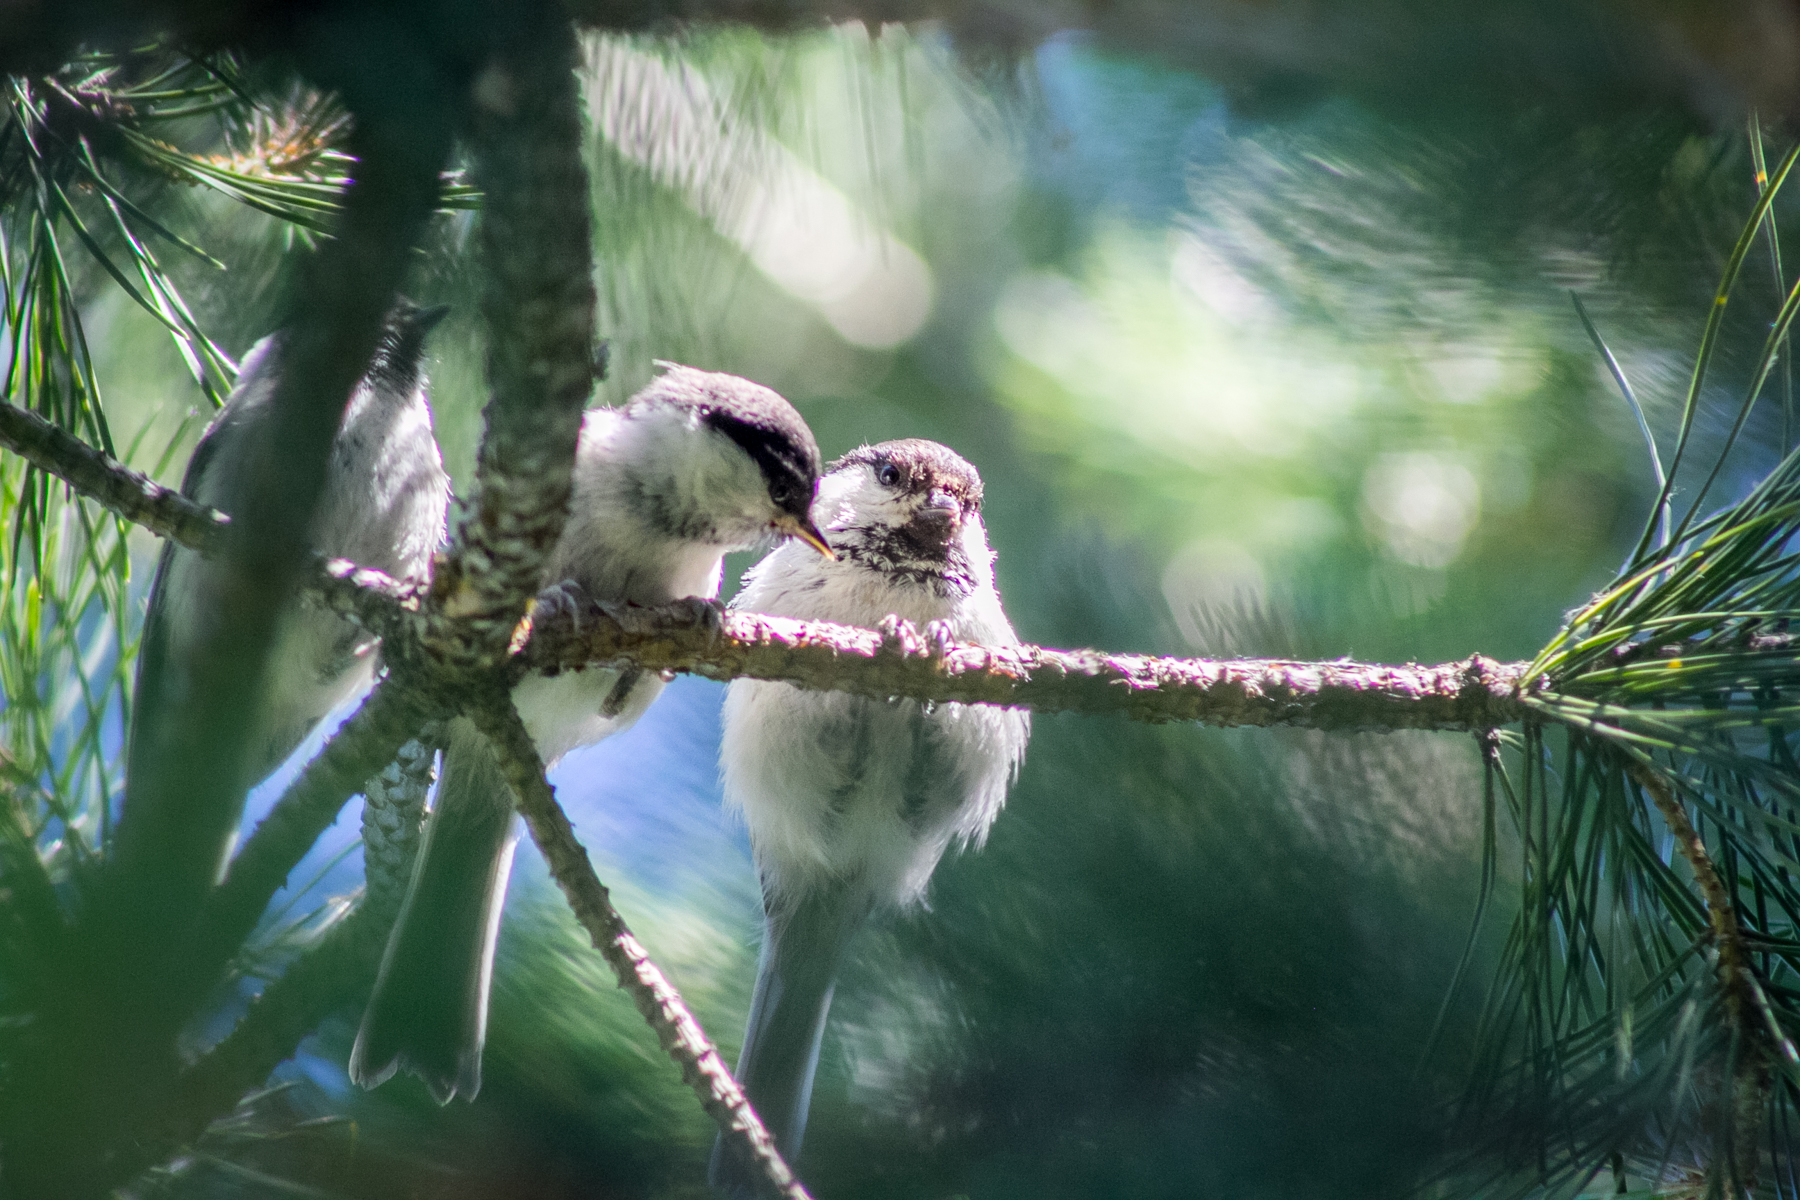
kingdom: Animalia
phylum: Chordata
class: Aves
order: Passeriformes
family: Paridae
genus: Poecile
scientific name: Poecile montanus
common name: Willow tit
